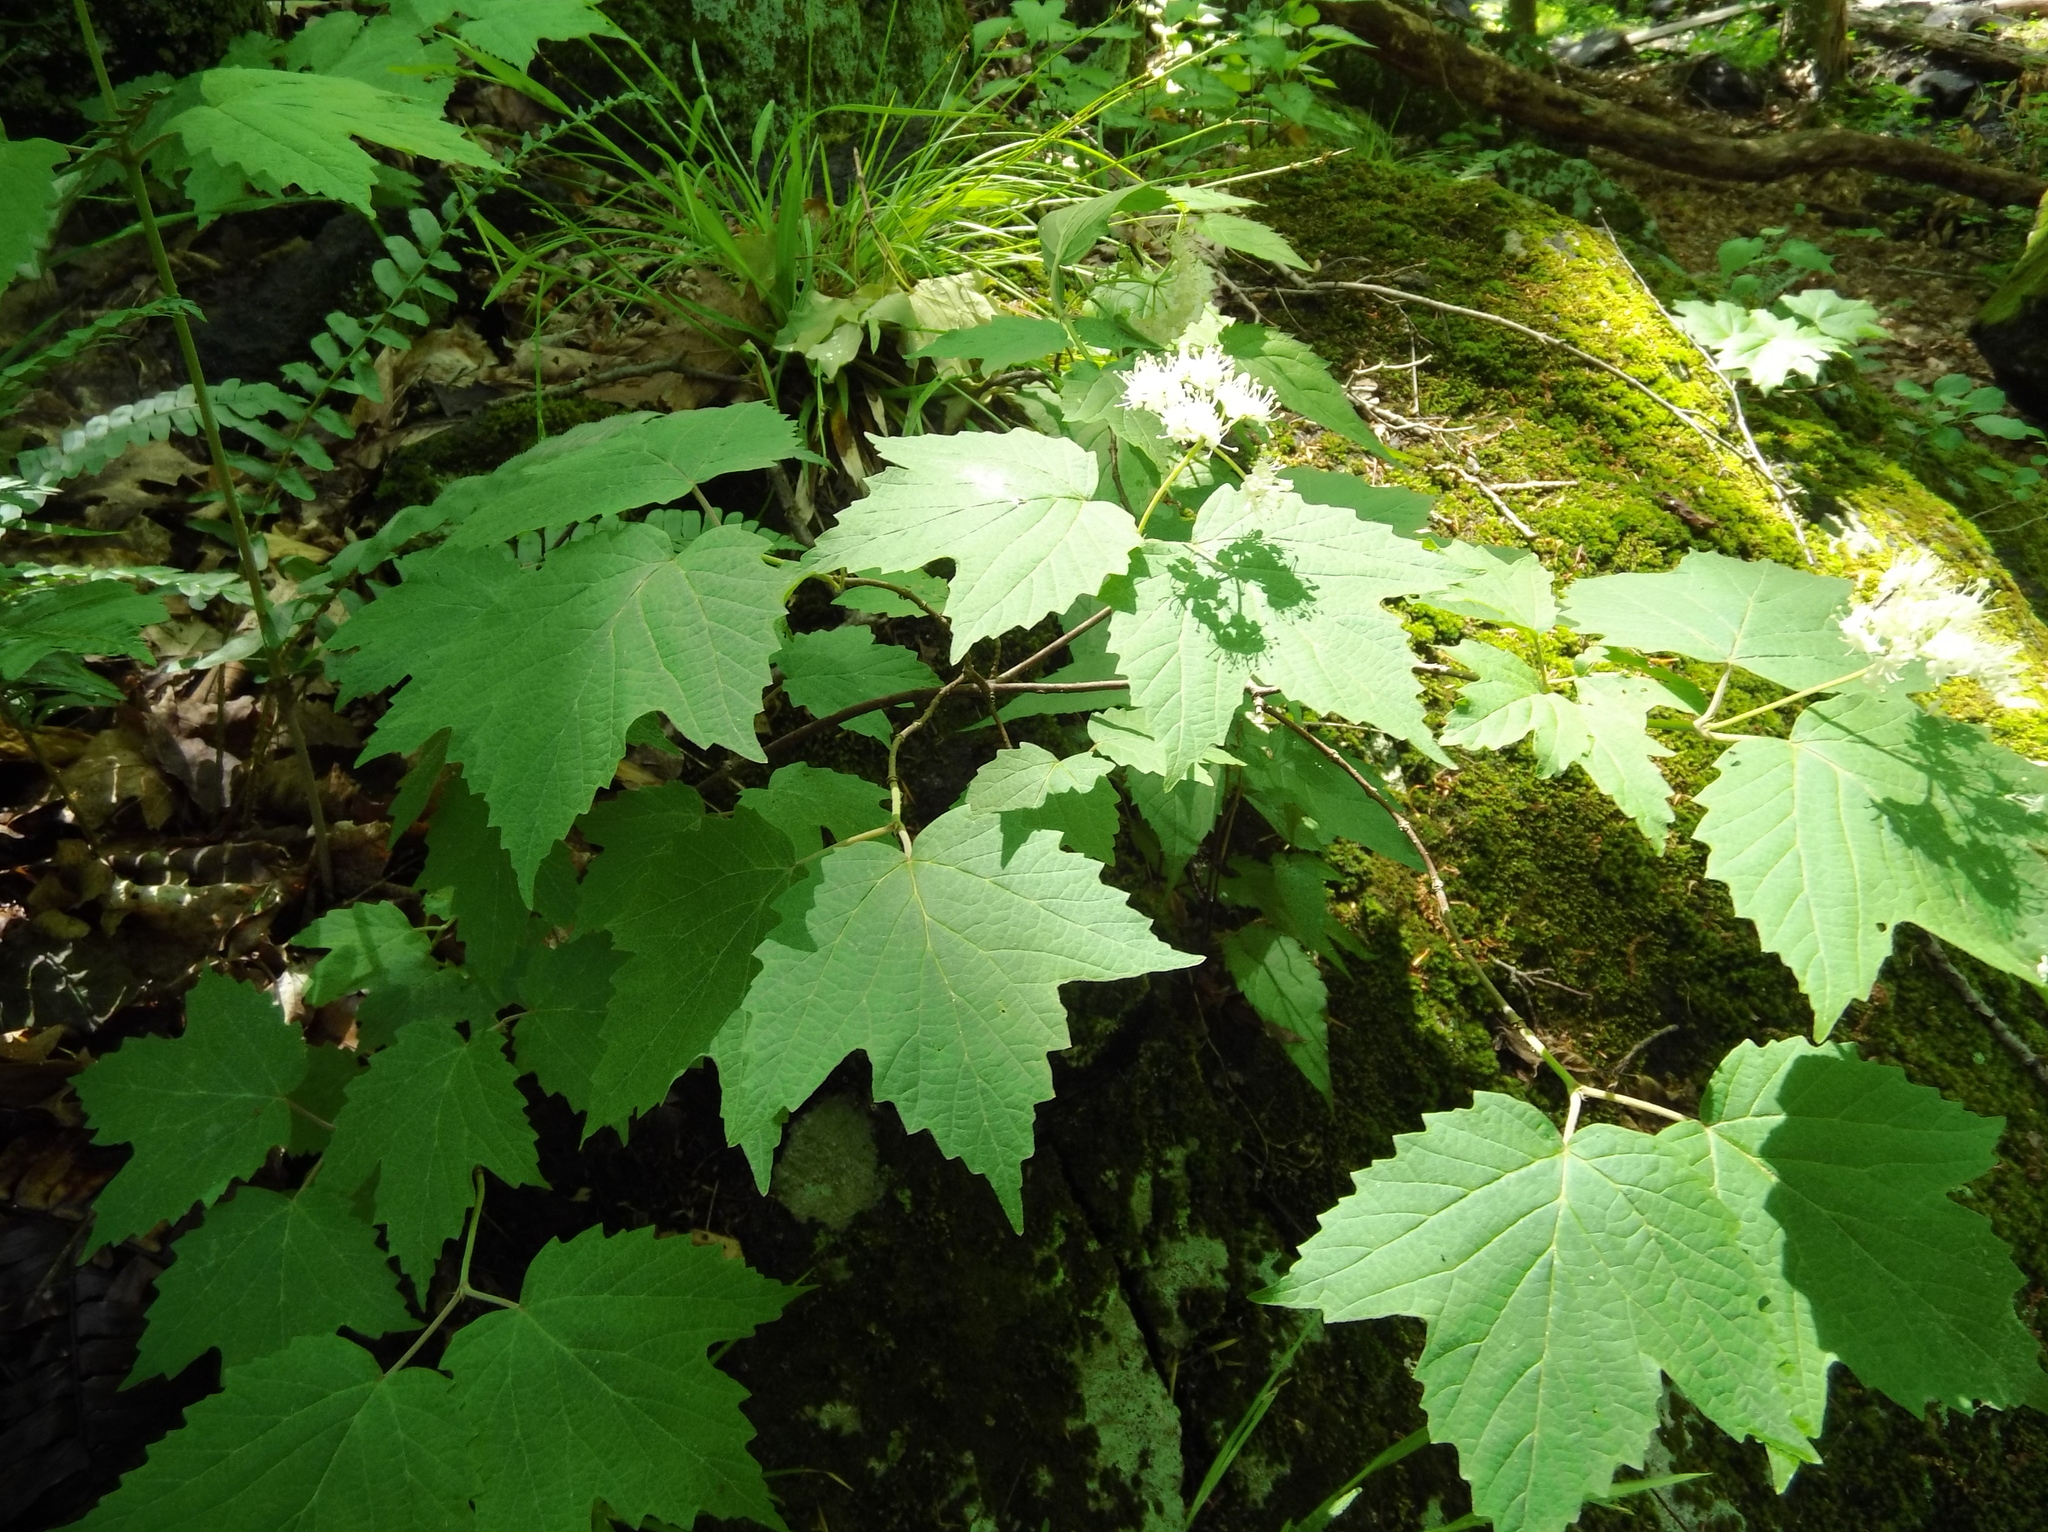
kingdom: Plantae
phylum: Tracheophyta
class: Magnoliopsida
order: Dipsacales
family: Viburnaceae
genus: Viburnum
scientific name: Viburnum acerifolium
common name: Dockmackie
